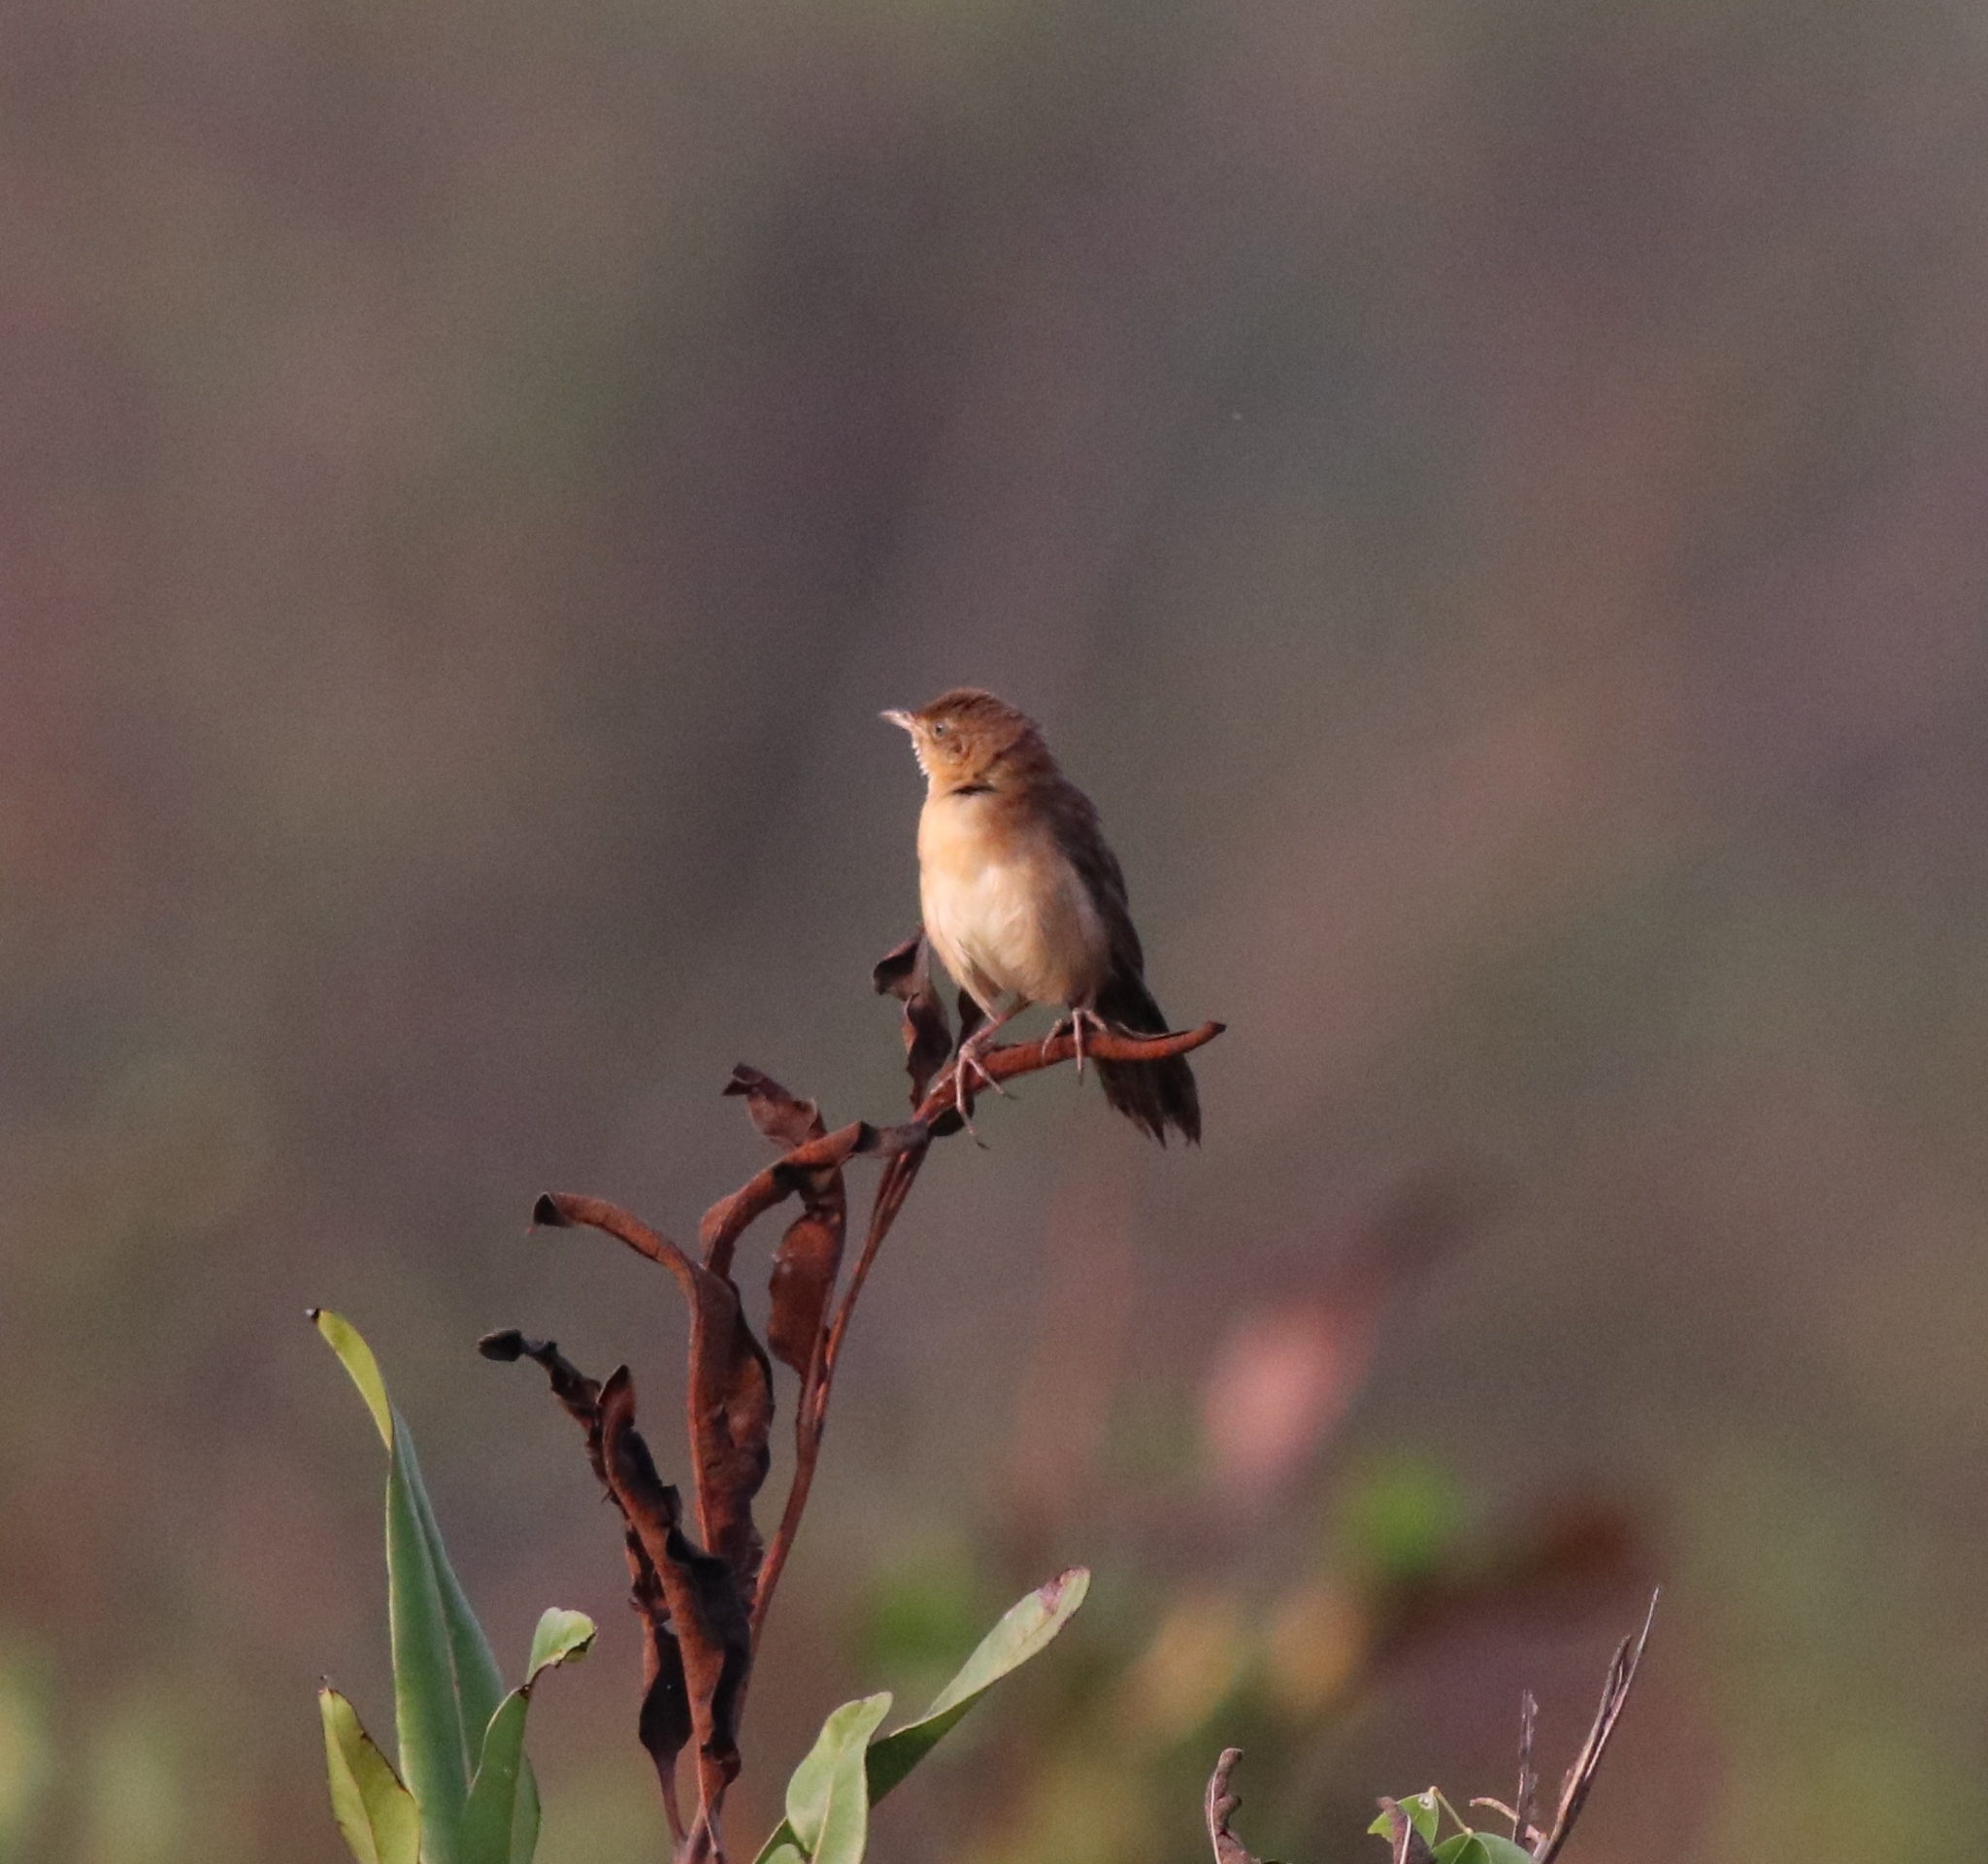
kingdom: Animalia
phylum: Chordata
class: Aves
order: Passeriformes
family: Locustellidae
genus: Schoenicola
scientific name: Schoenicola platyurus
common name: Broad-tailed grassbird
